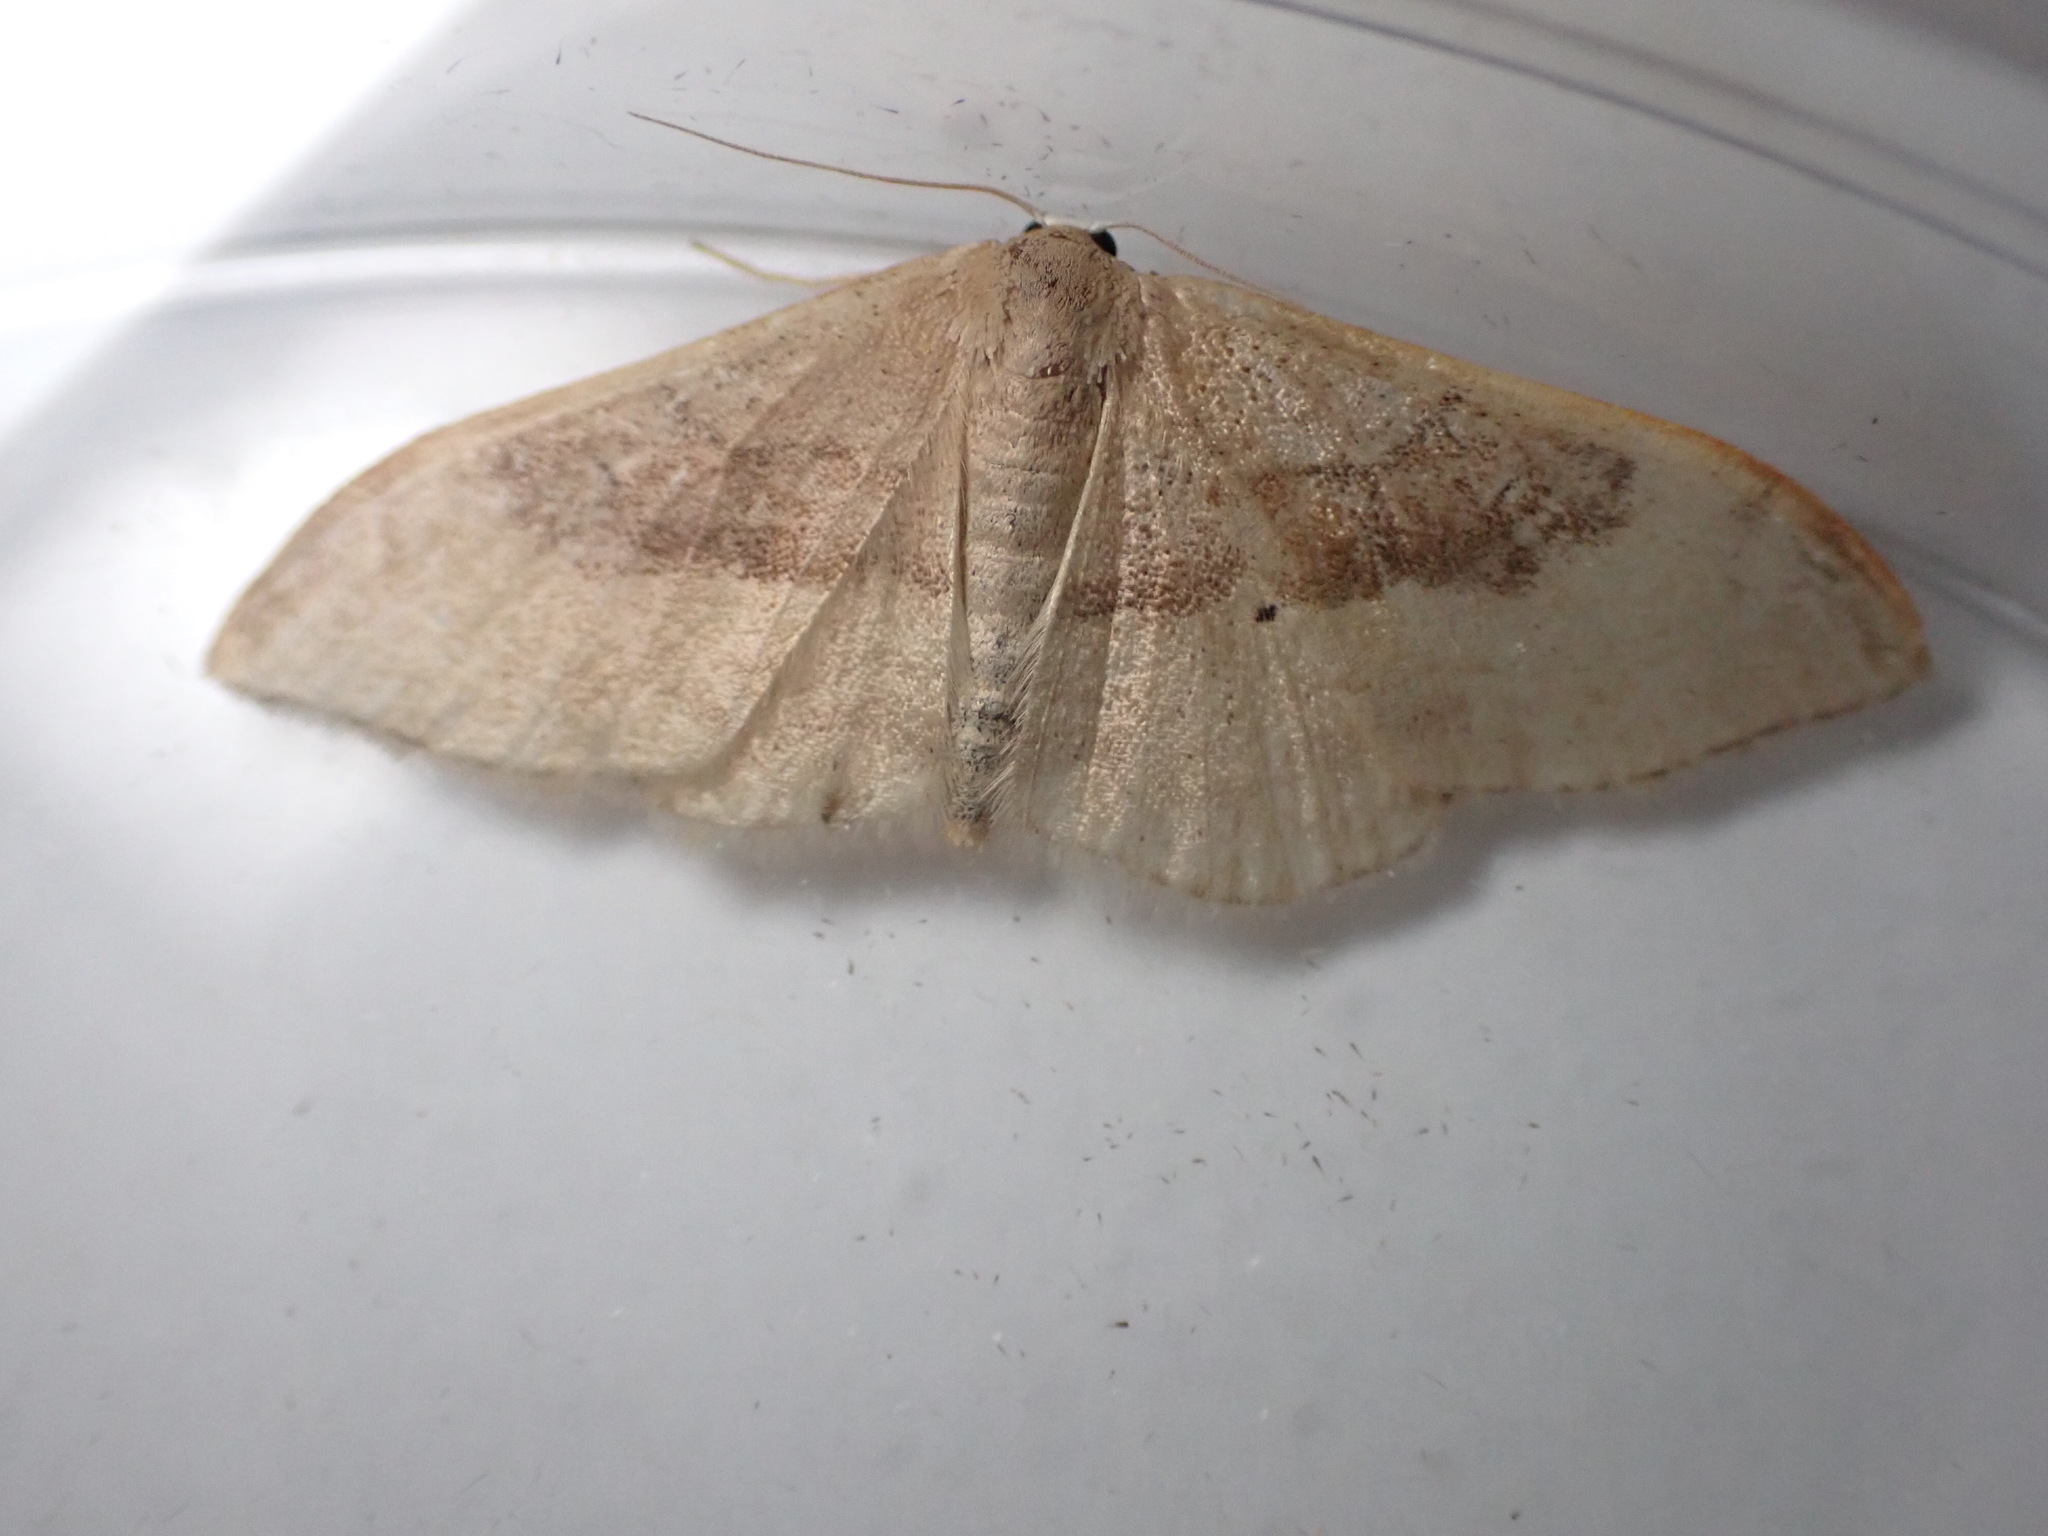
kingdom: Animalia
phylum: Arthropoda
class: Insecta
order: Lepidoptera
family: Geometridae
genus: Idaea
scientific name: Idaea degeneraria
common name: Portland ribbon wave
